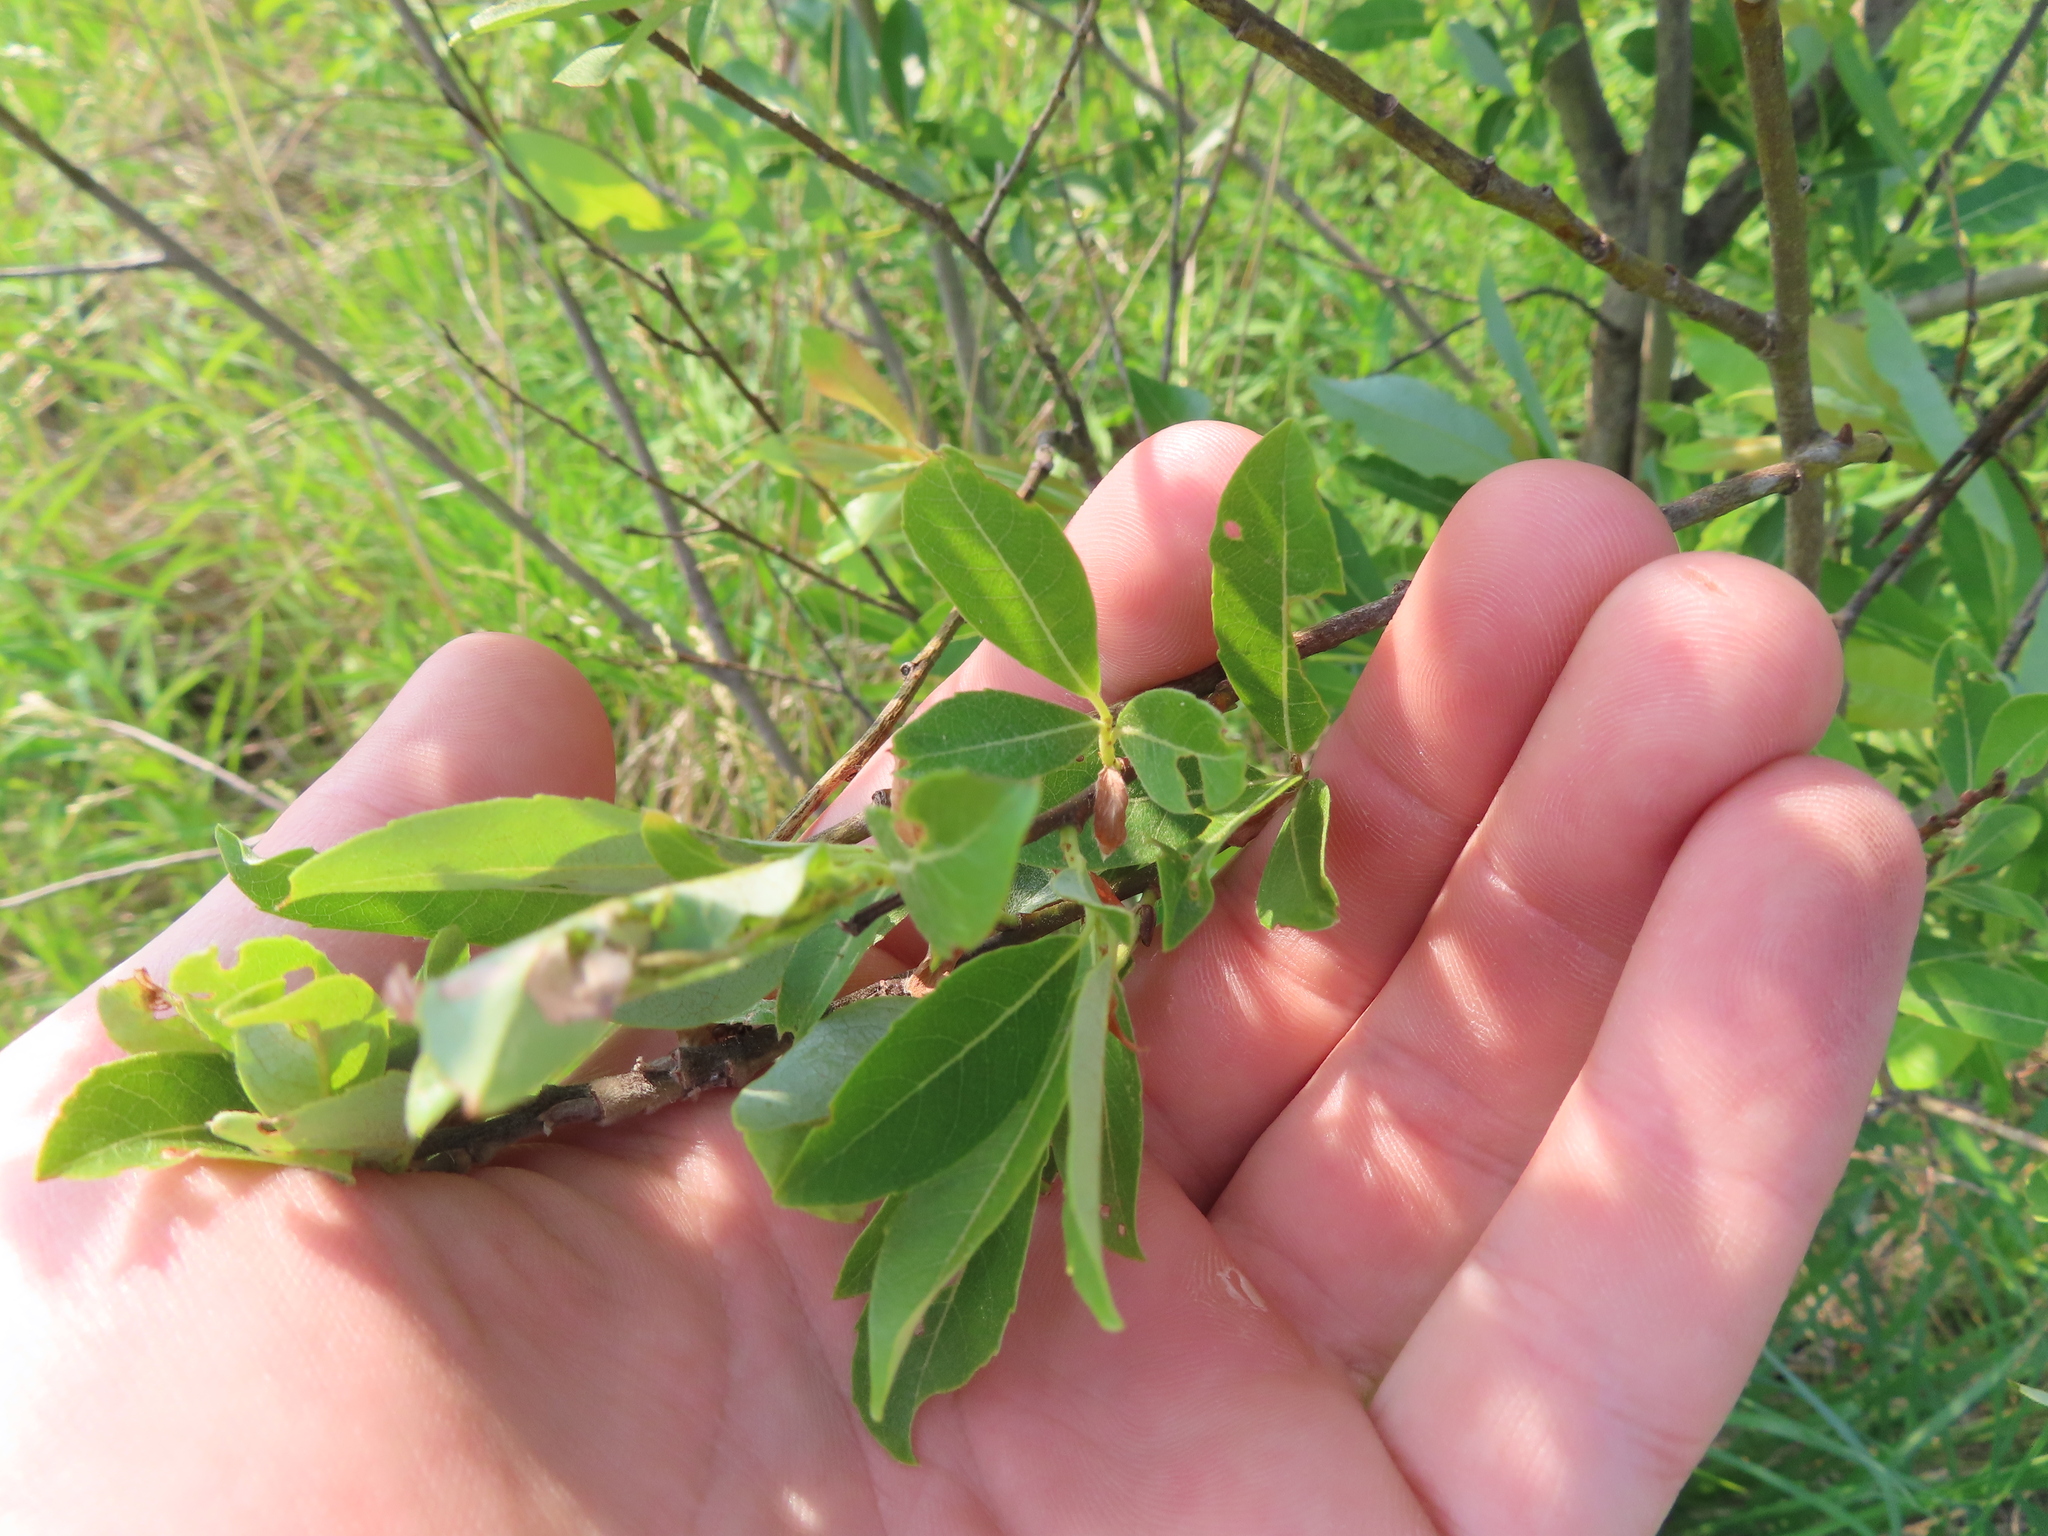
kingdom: Plantae
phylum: Tracheophyta
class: Magnoliopsida
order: Malpighiales
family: Salicaceae
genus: Salix
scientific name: Salix discolor
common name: Glaucous willow
